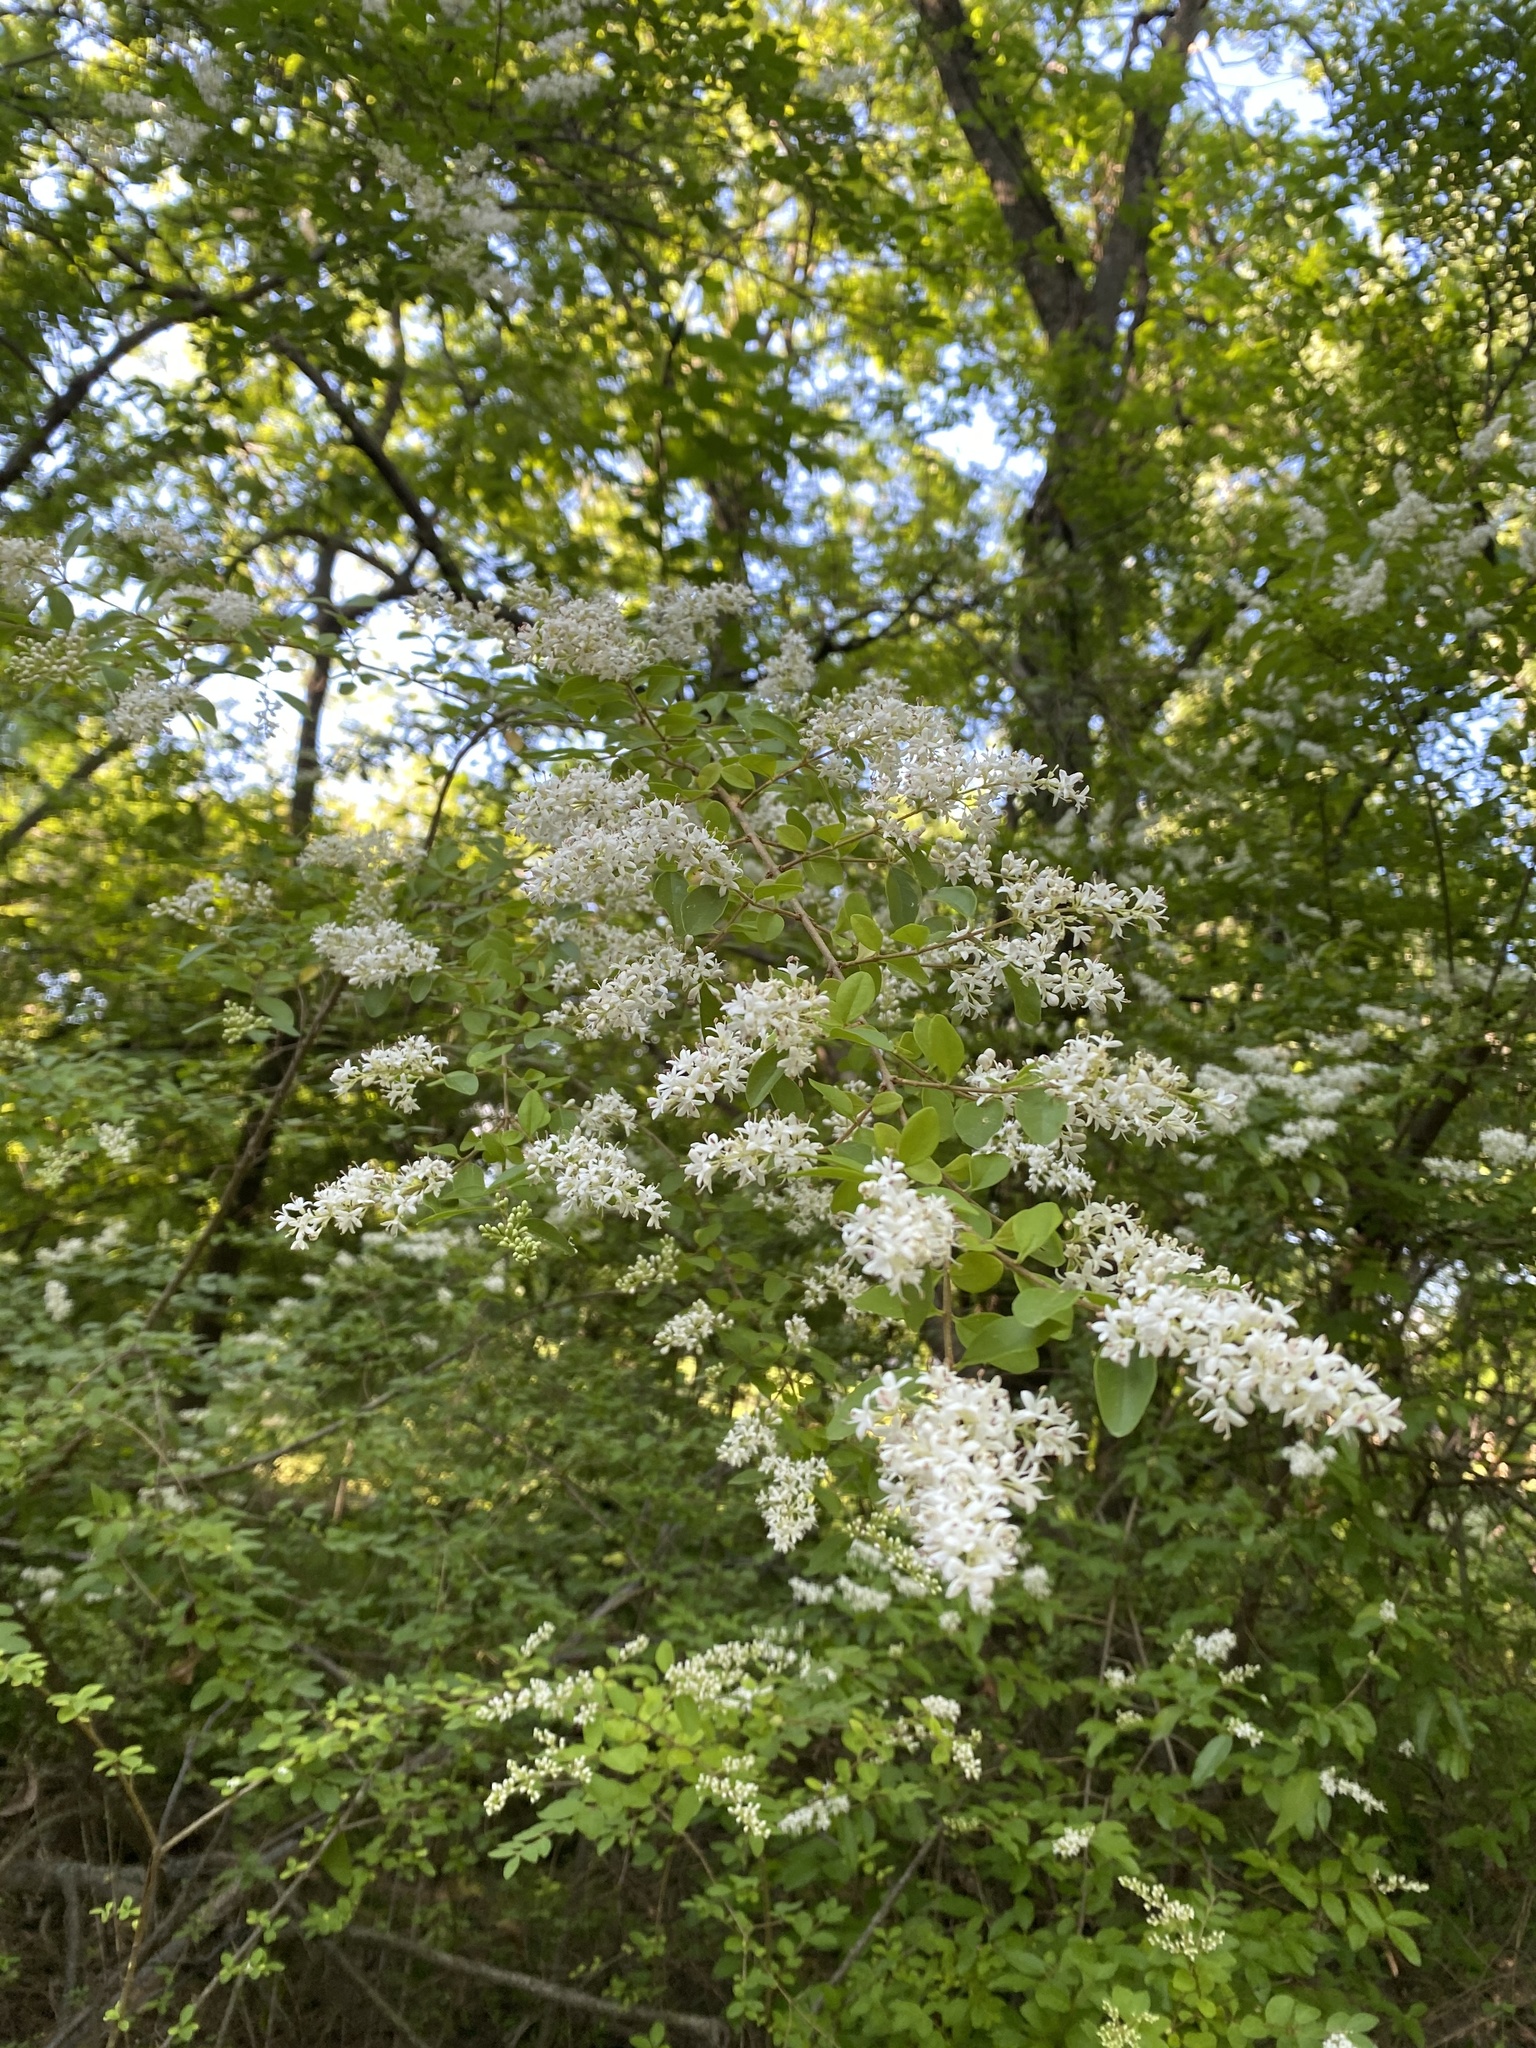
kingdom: Plantae
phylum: Tracheophyta
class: Magnoliopsida
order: Lamiales
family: Oleaceae
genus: Ligustrum
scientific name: Ligustrum sinense
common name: Chinese privet
